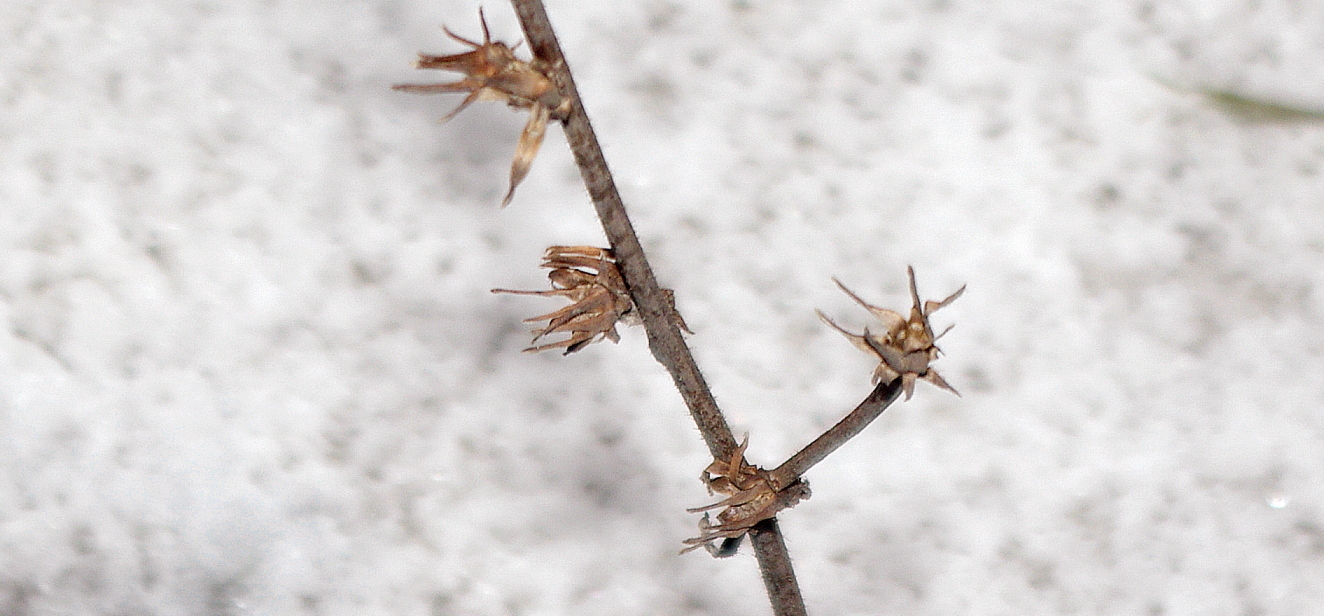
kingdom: Plantae
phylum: Tracheophyta
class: Magnoliopsida
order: Asterales
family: Asteraceae
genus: Cichorium
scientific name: Cichorium intybus
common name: Chicory
